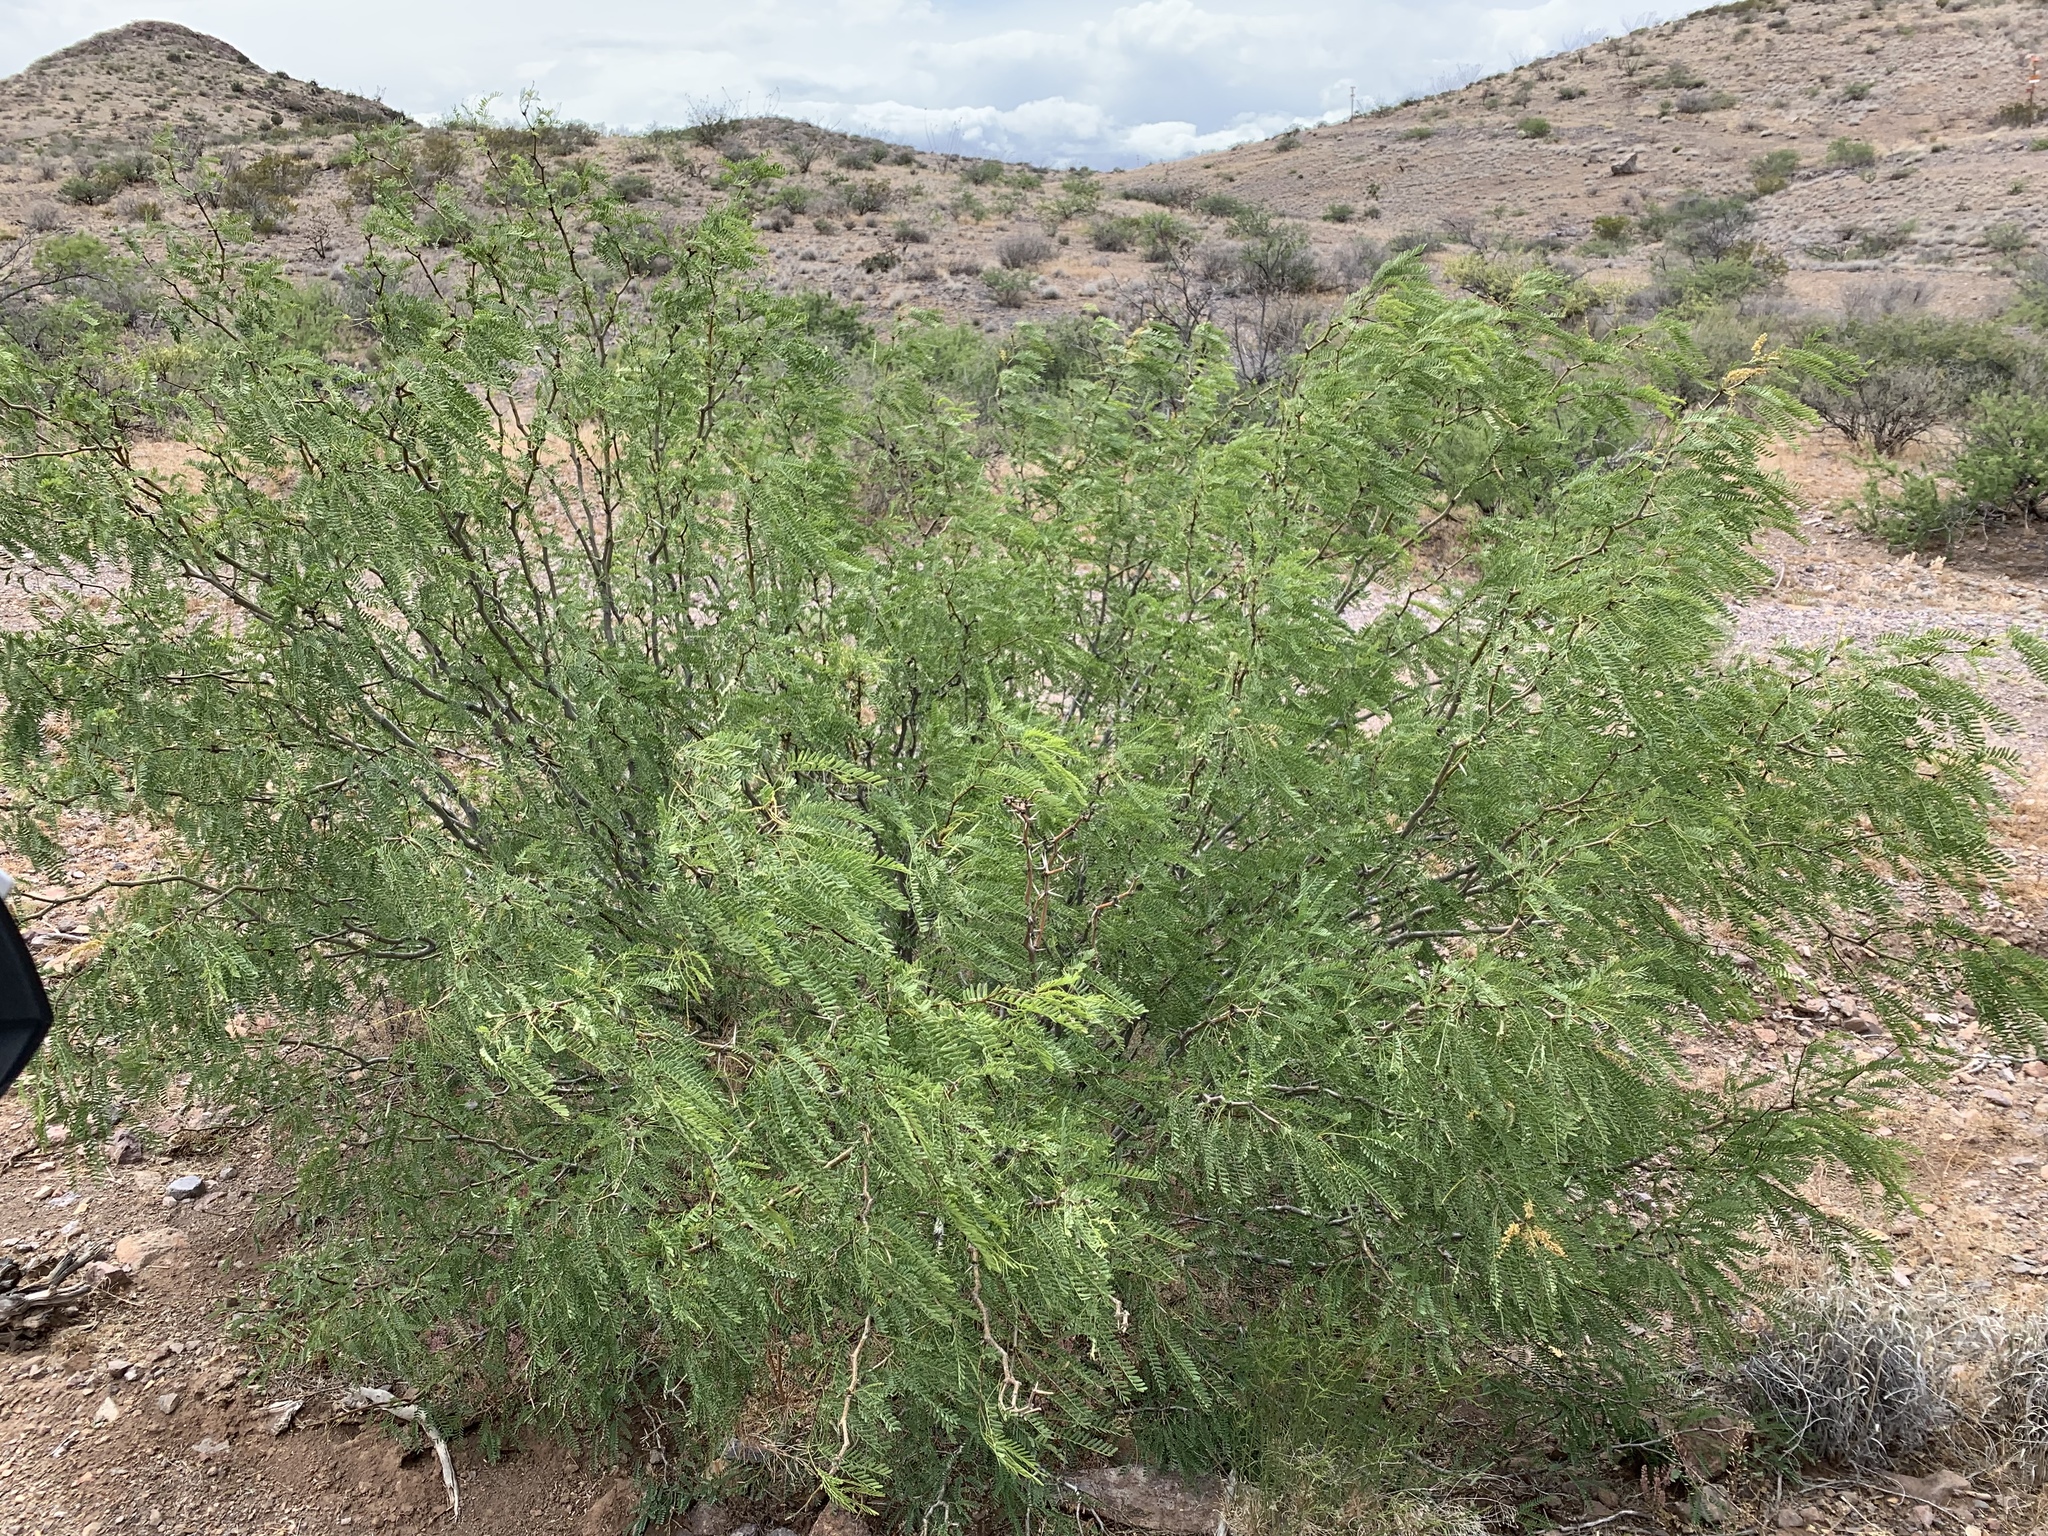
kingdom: Plantae
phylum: Tracheophyta
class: Magnoliopsida
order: Fabales
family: Fabaceae
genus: Prosopis
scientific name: Prosopis glandulosa
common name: Honey mesquite
